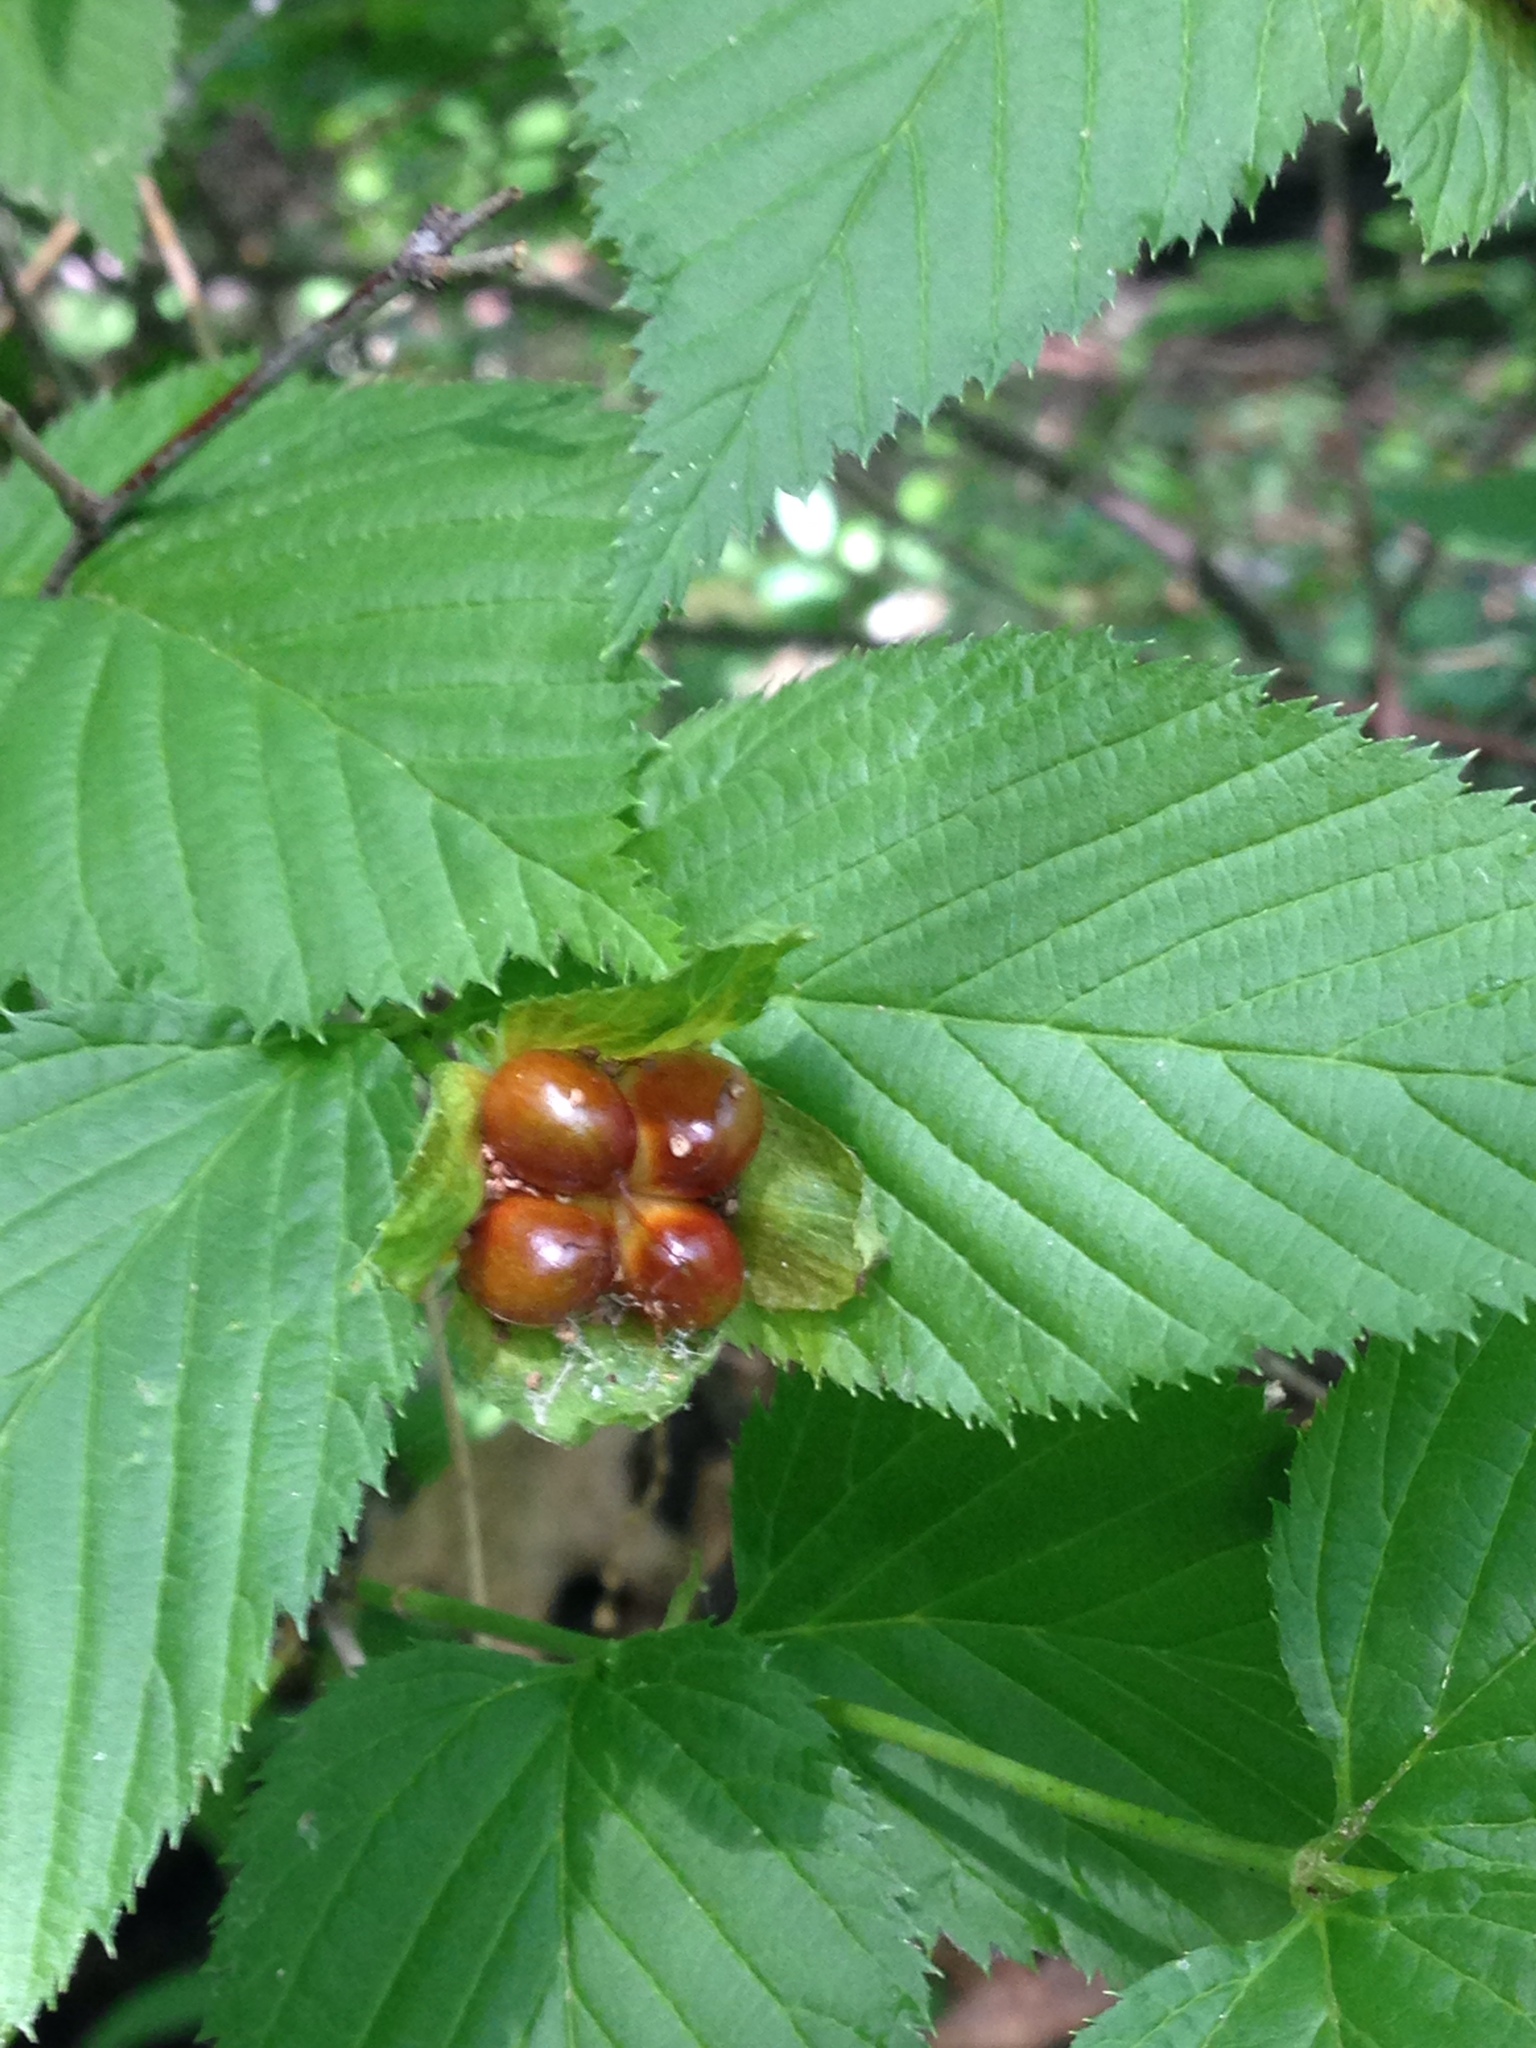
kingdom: Plantae
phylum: Tracheophyta
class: Magnoliopsida
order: Rosales
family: Rosaceae
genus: Rhodotypos
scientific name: Rhodotypos scandens
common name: Jetbead
